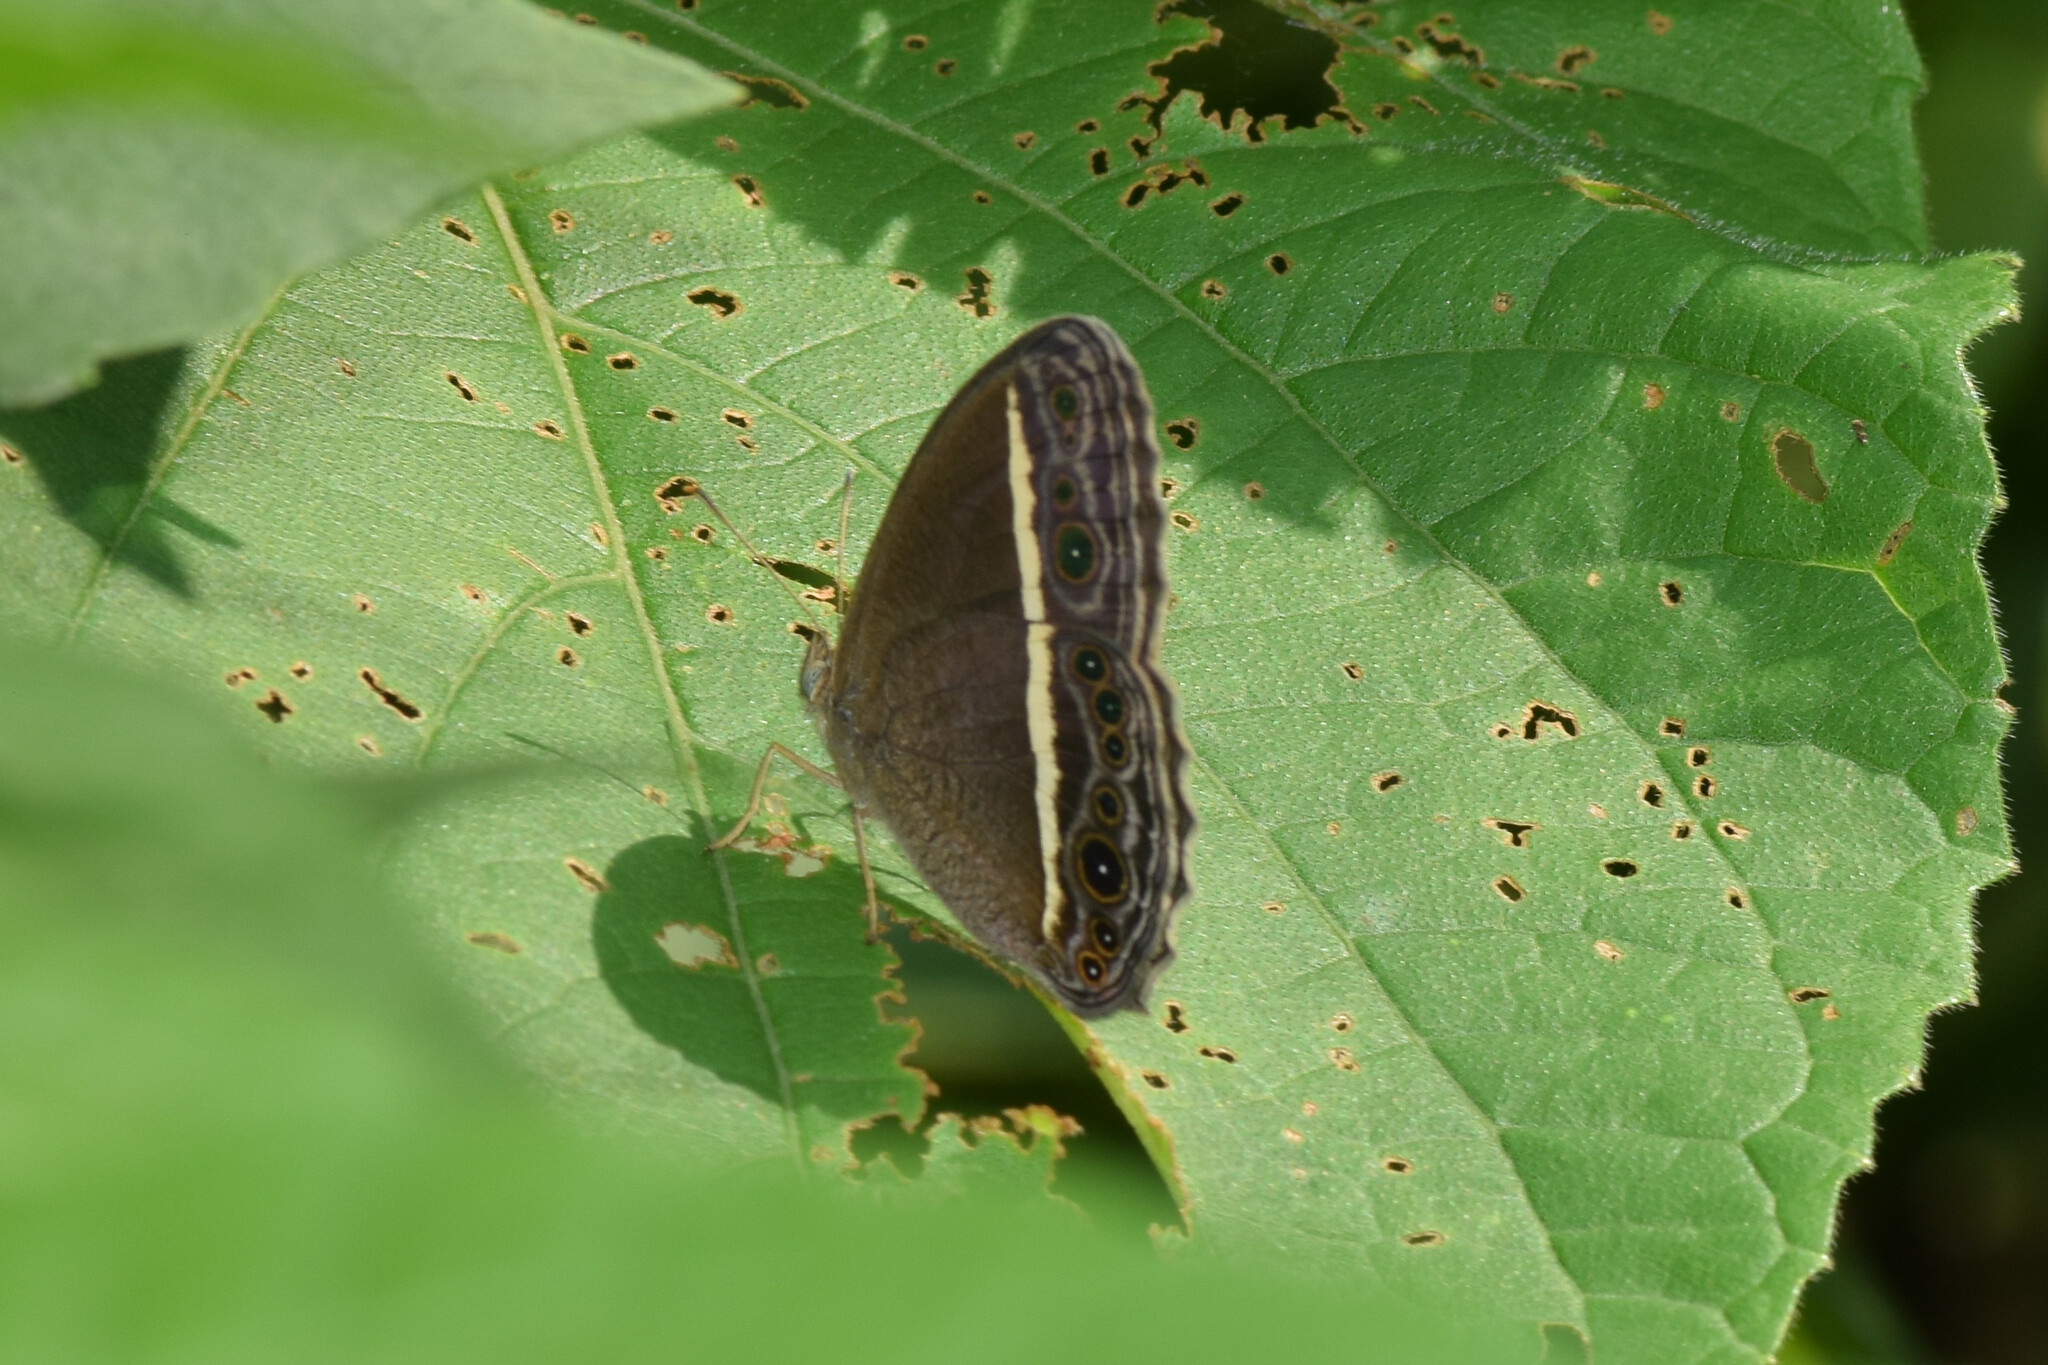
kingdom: Animalia
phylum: Arthropoda
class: Insecta
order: Lepidoptera
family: Nymphalidae
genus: Mycalesis
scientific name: Mycalesis Telinga malsara
